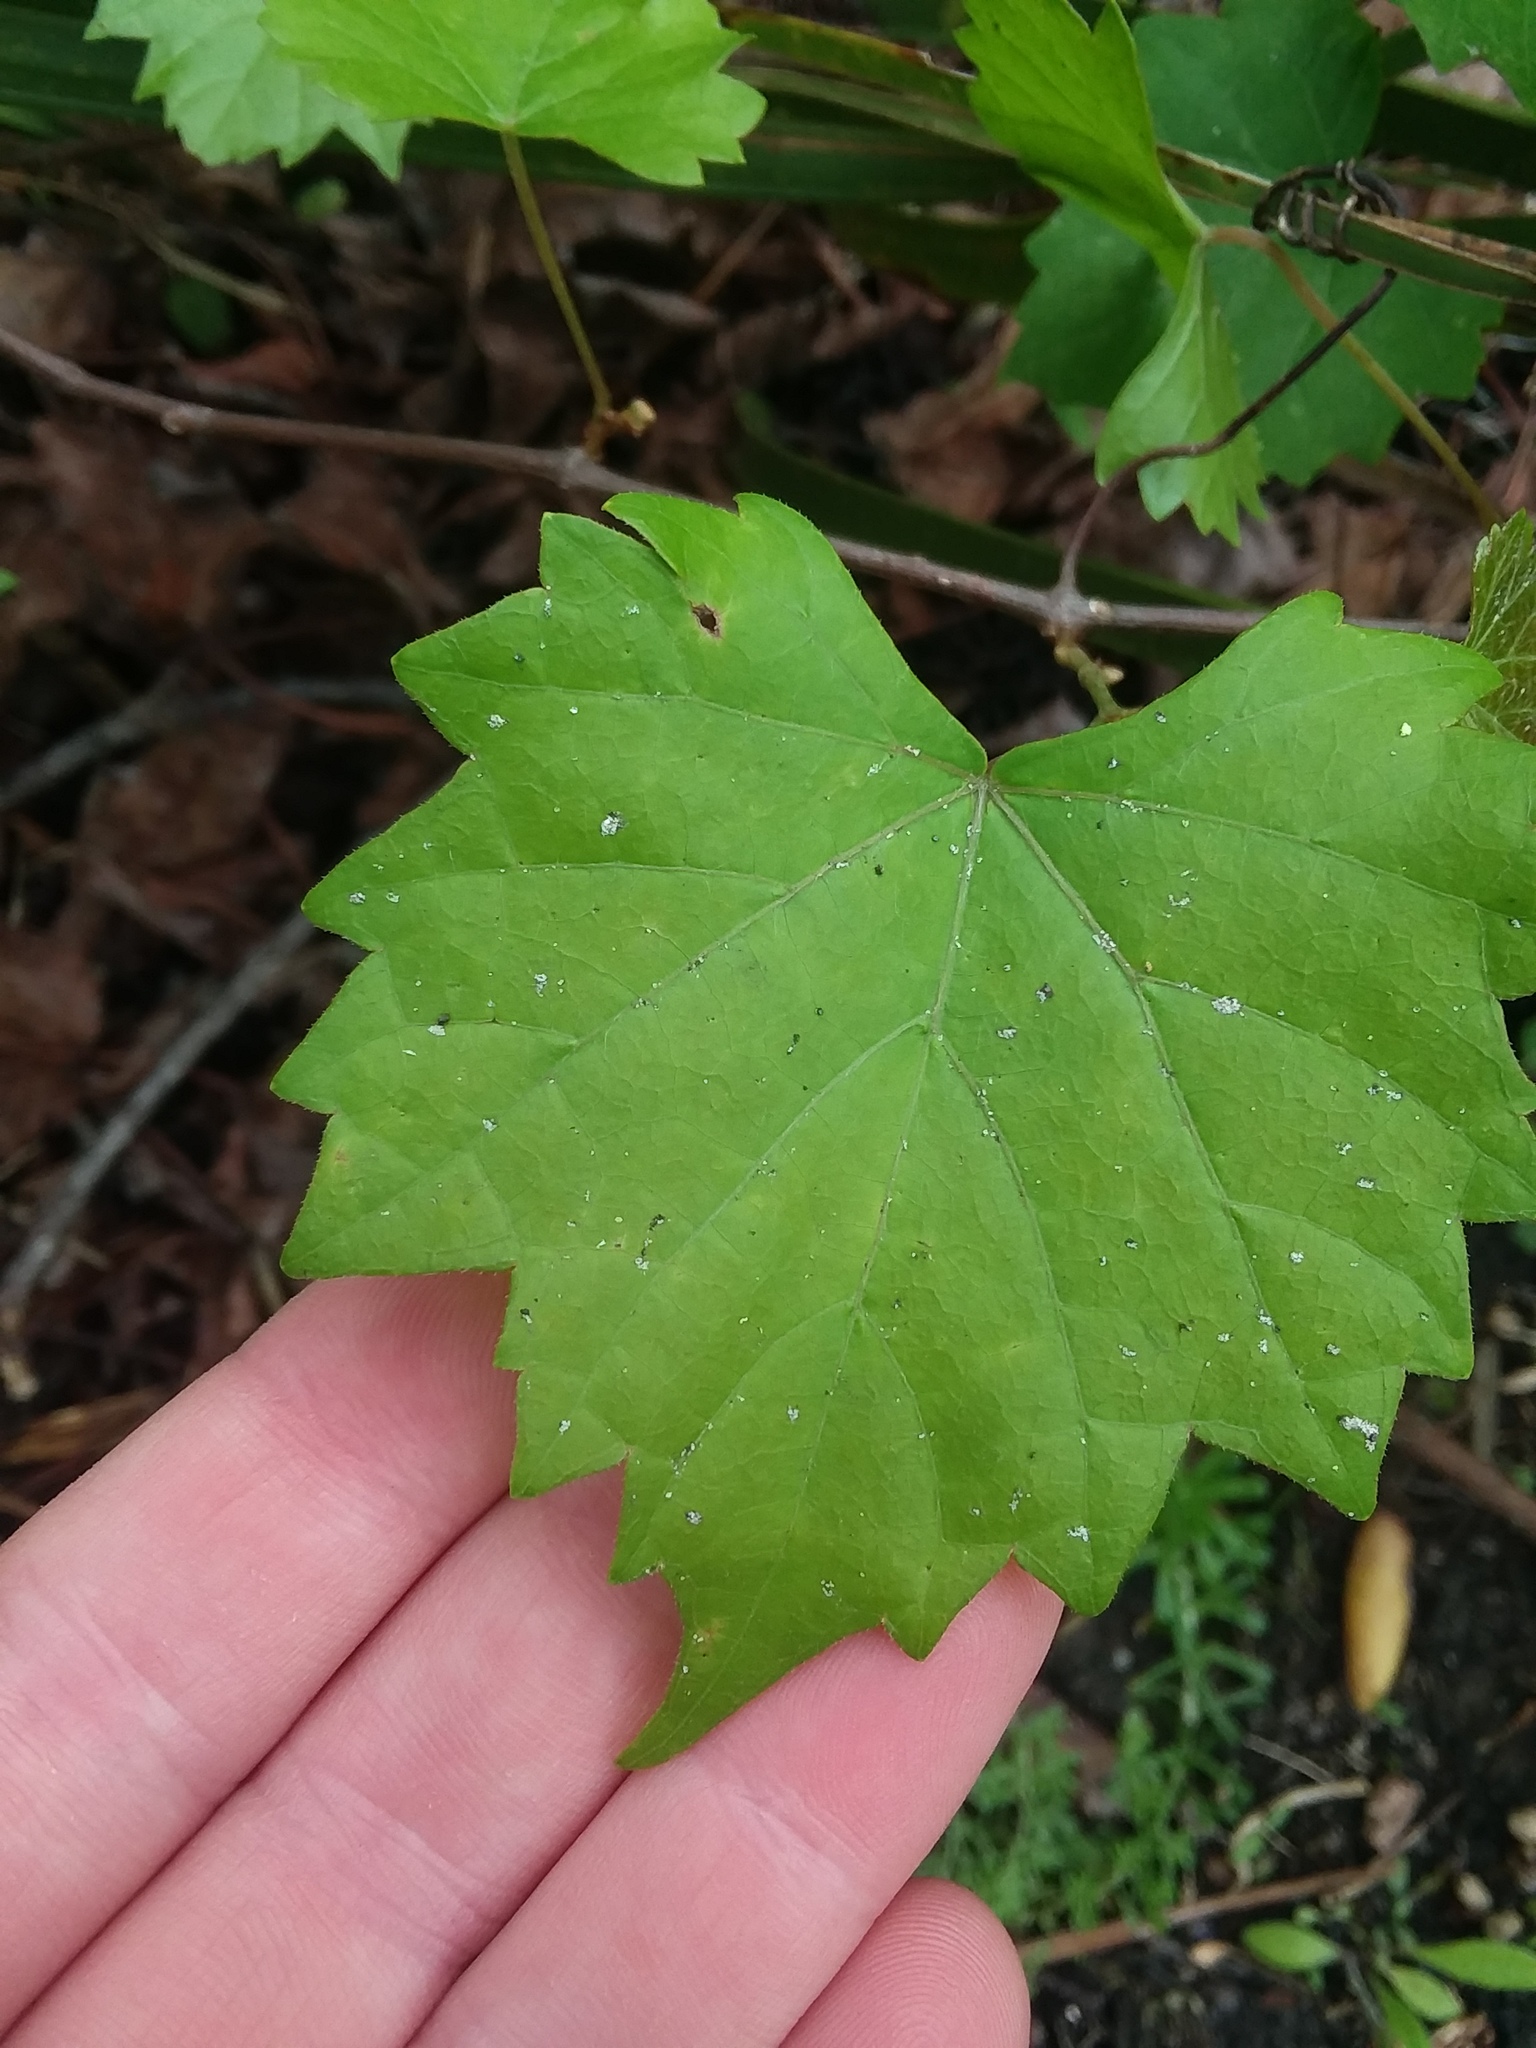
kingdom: Plantae
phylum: Tracheophyta
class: Magnoliopsida
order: Vitales
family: Vitaceae
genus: Vitis
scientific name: Vitis rotundifolia
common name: Muscadine grape
